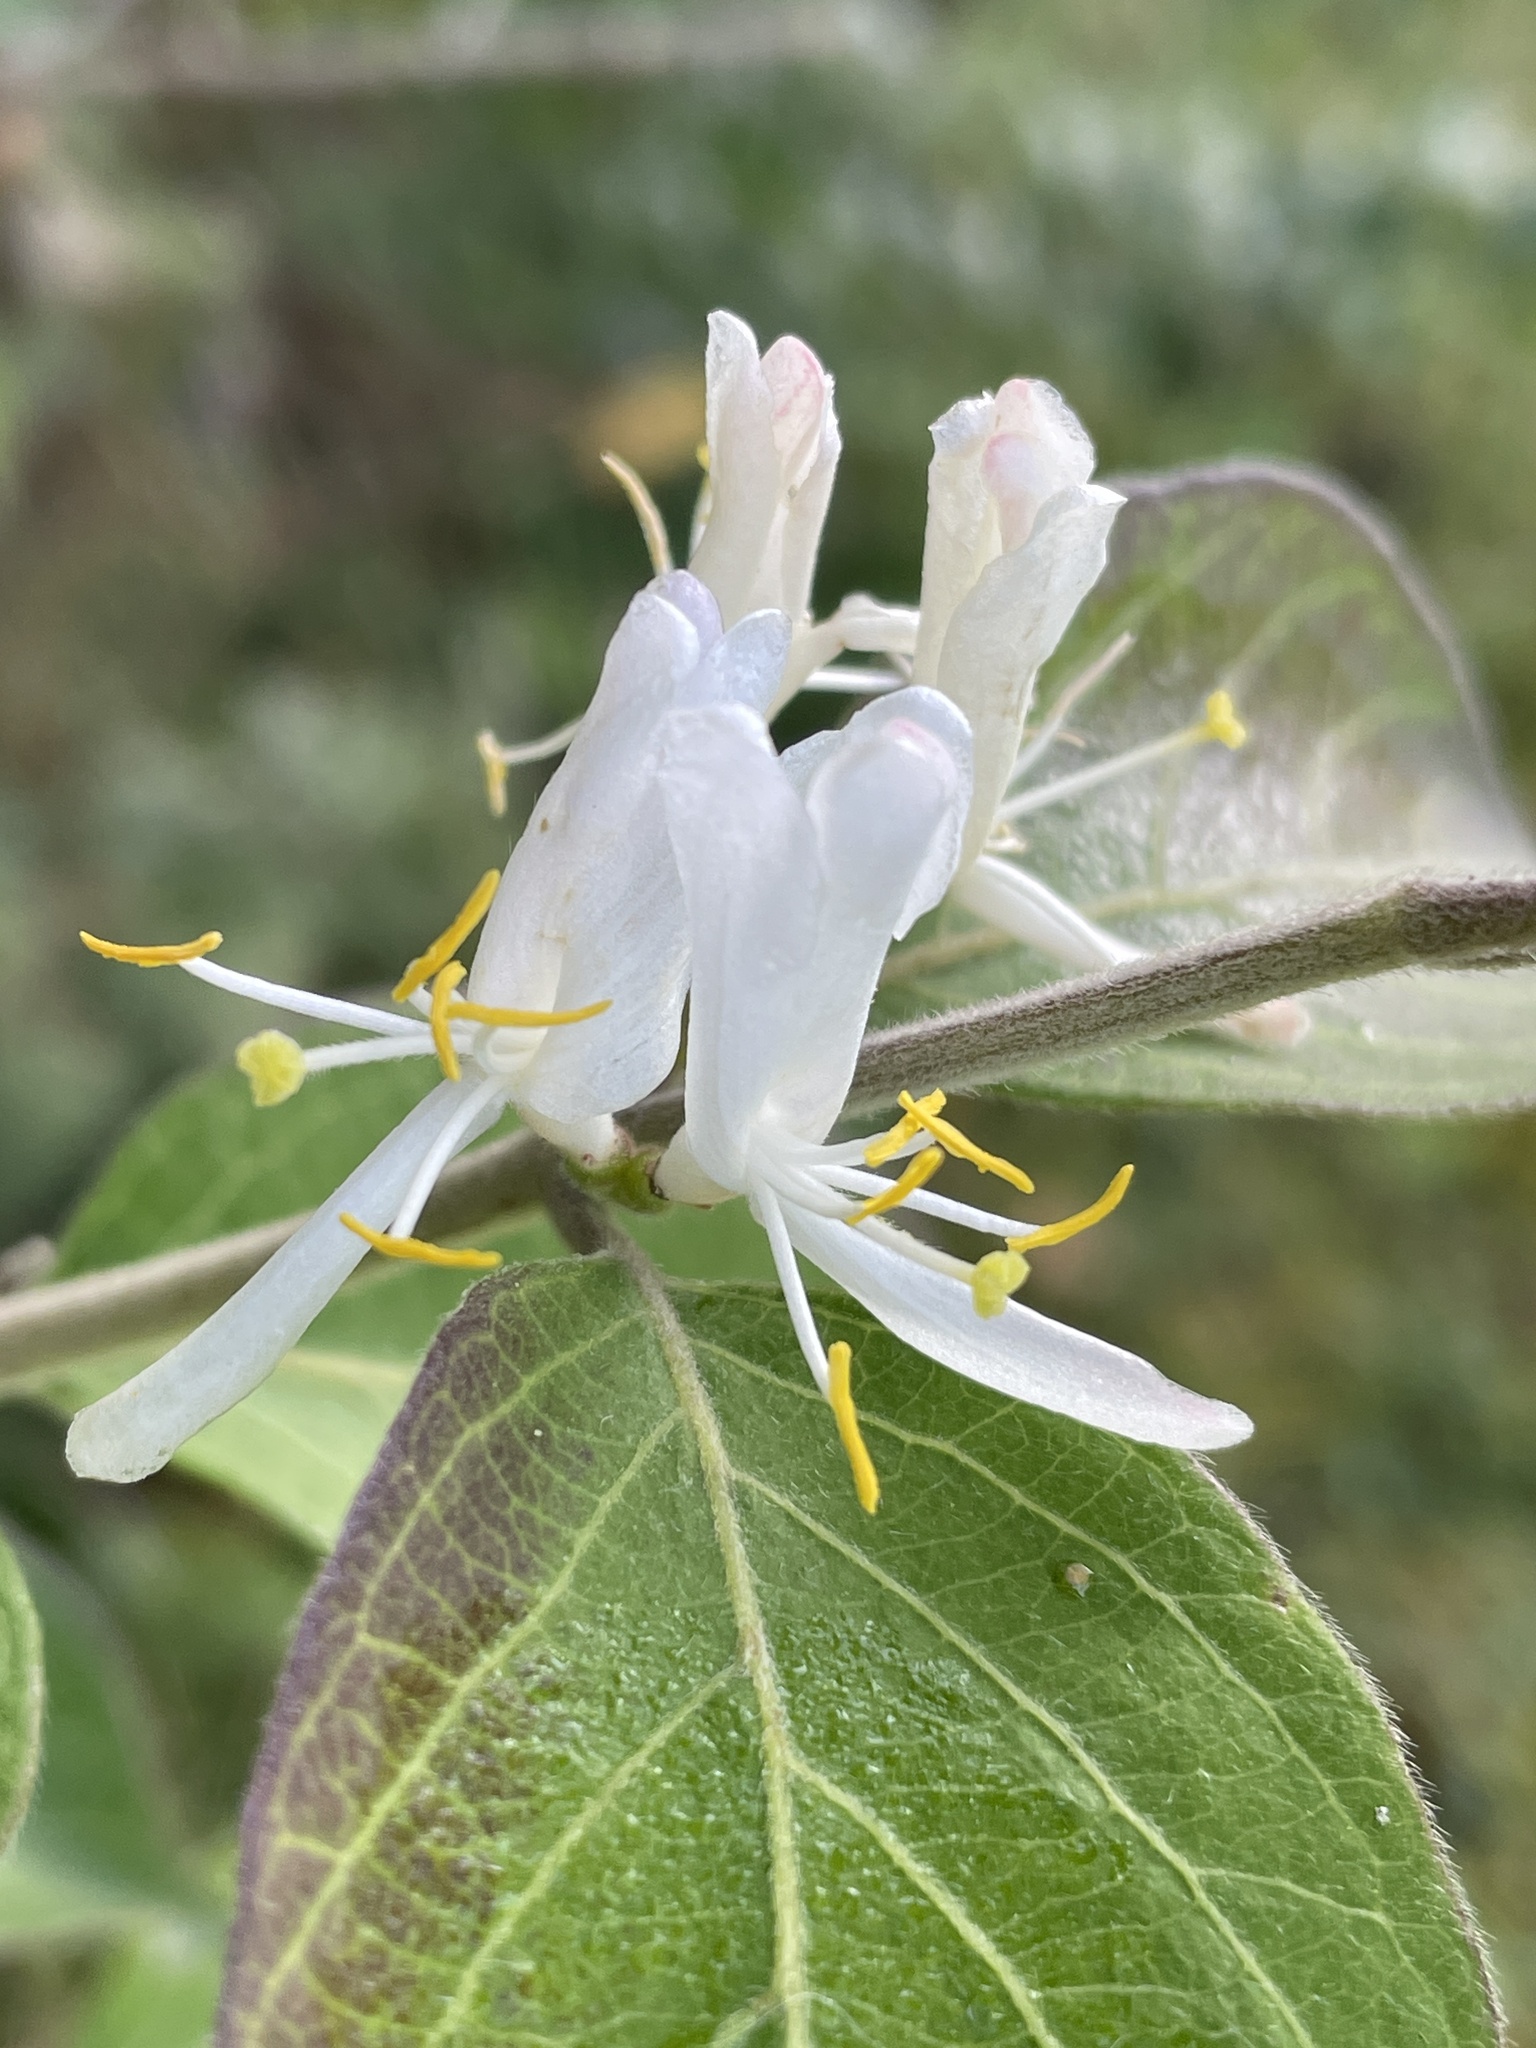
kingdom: Plantae
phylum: Tracheophyta
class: Magnoliopsida
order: Dipsacales
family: Caprifoliaceae
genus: Lonicera
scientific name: Lonicera maackii
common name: Amur honeysuckle
